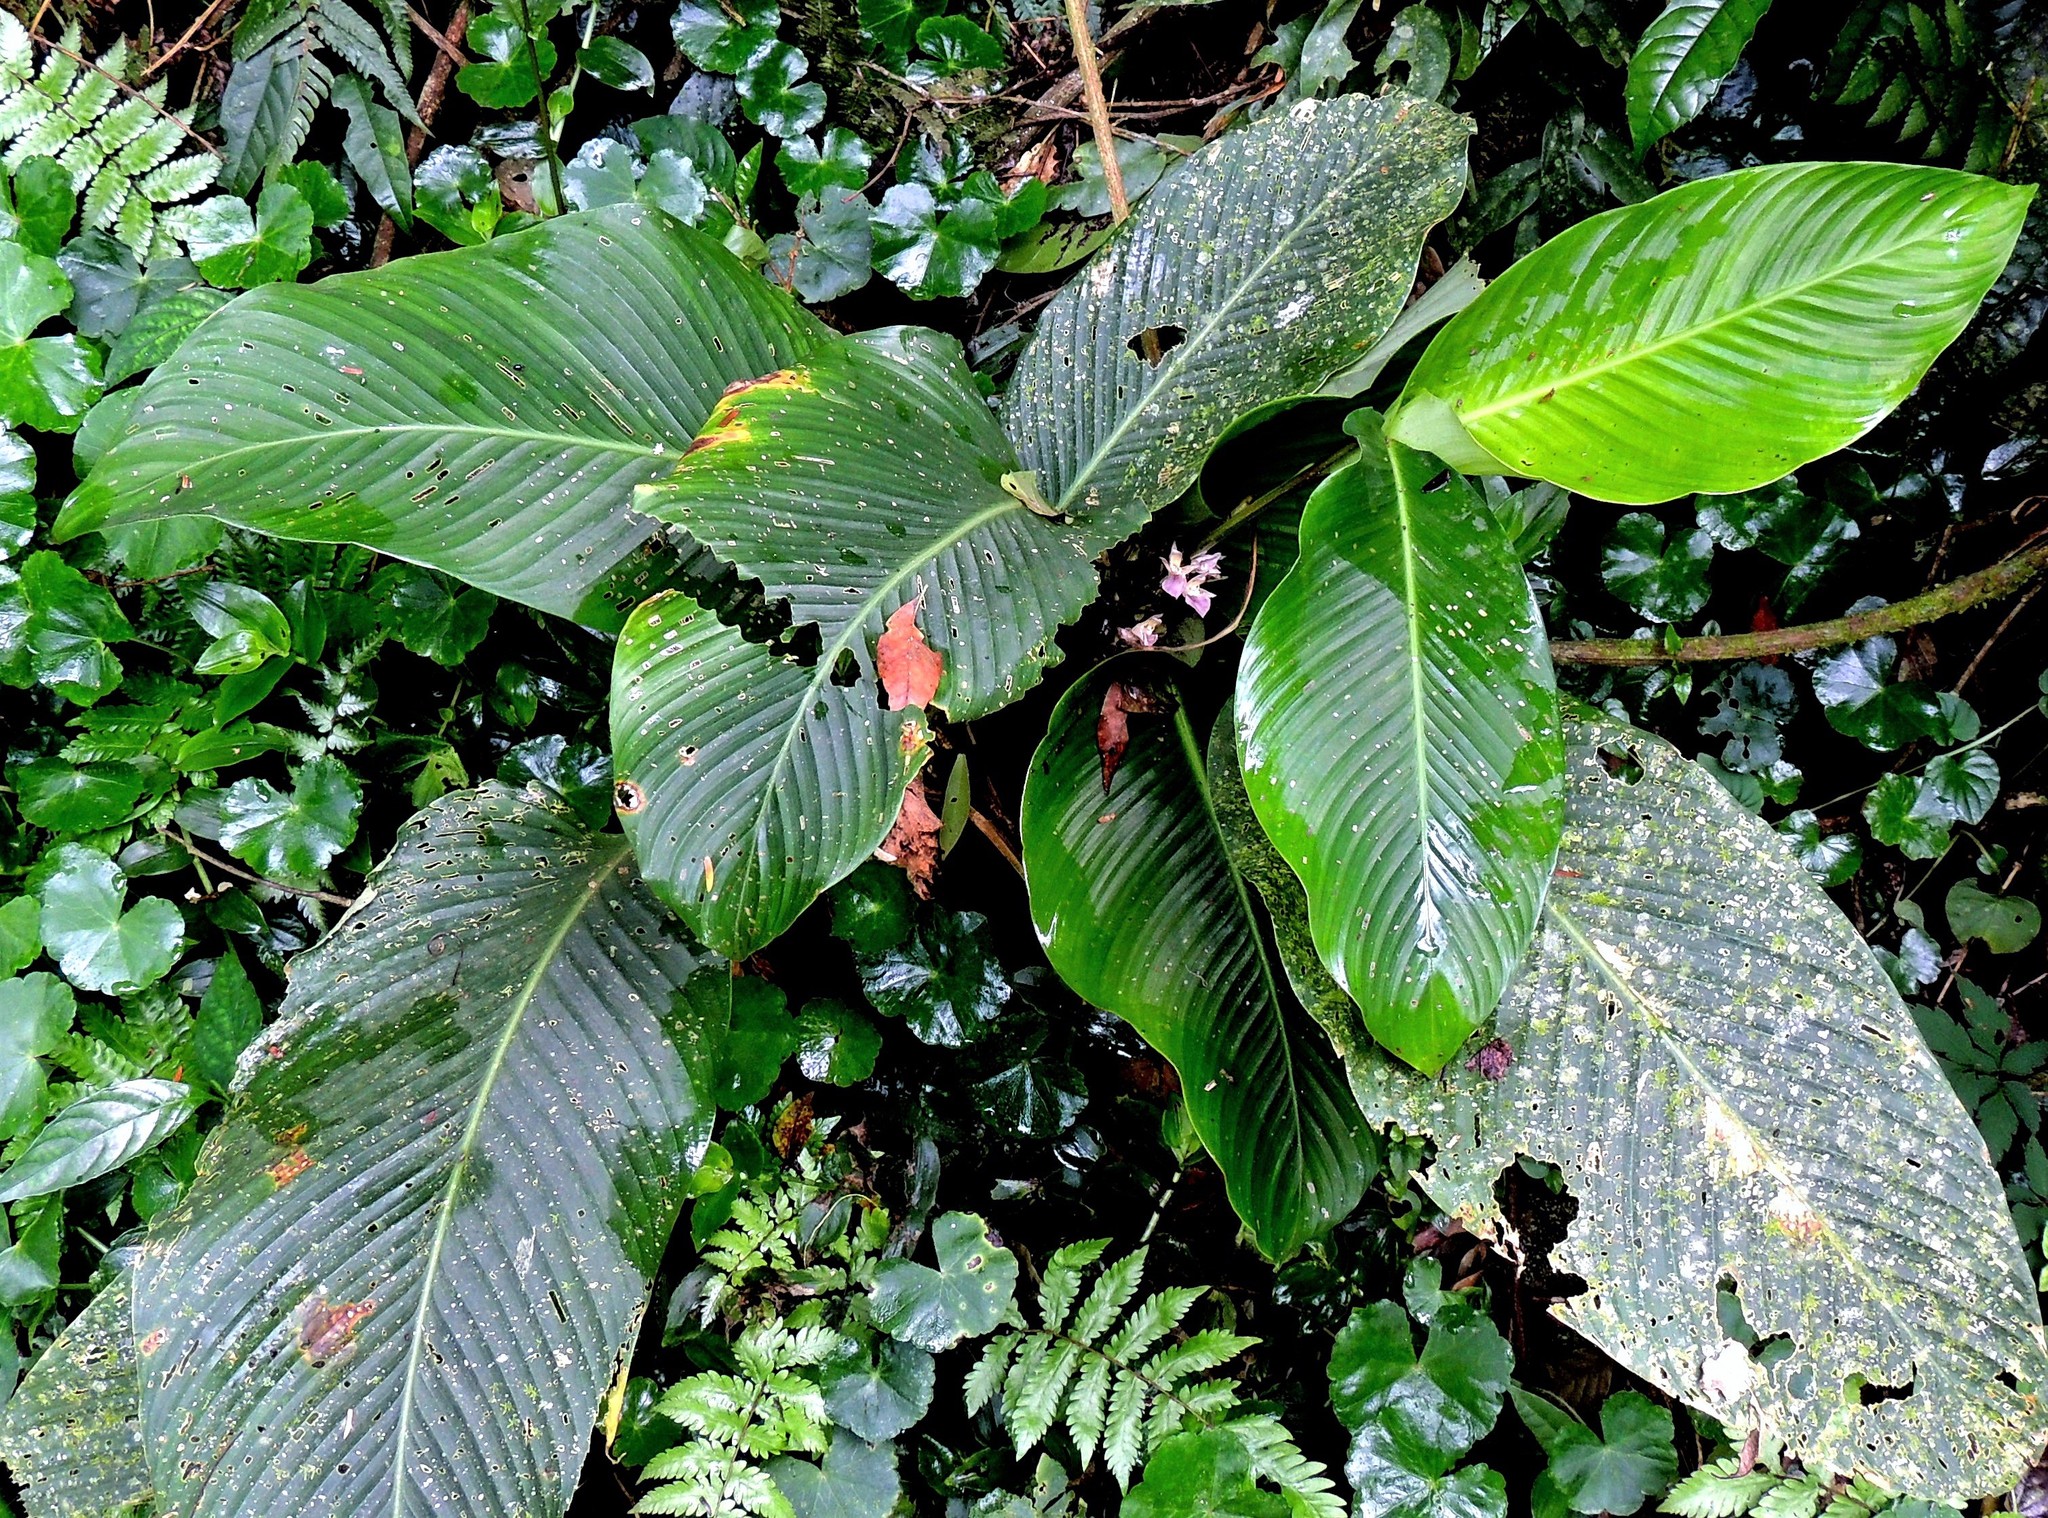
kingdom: Plantae
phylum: Tracheophyta
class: Liliopsida
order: Zingiberales
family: Marantaceae
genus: Goeppertia
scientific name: Goeppertia eichleri
